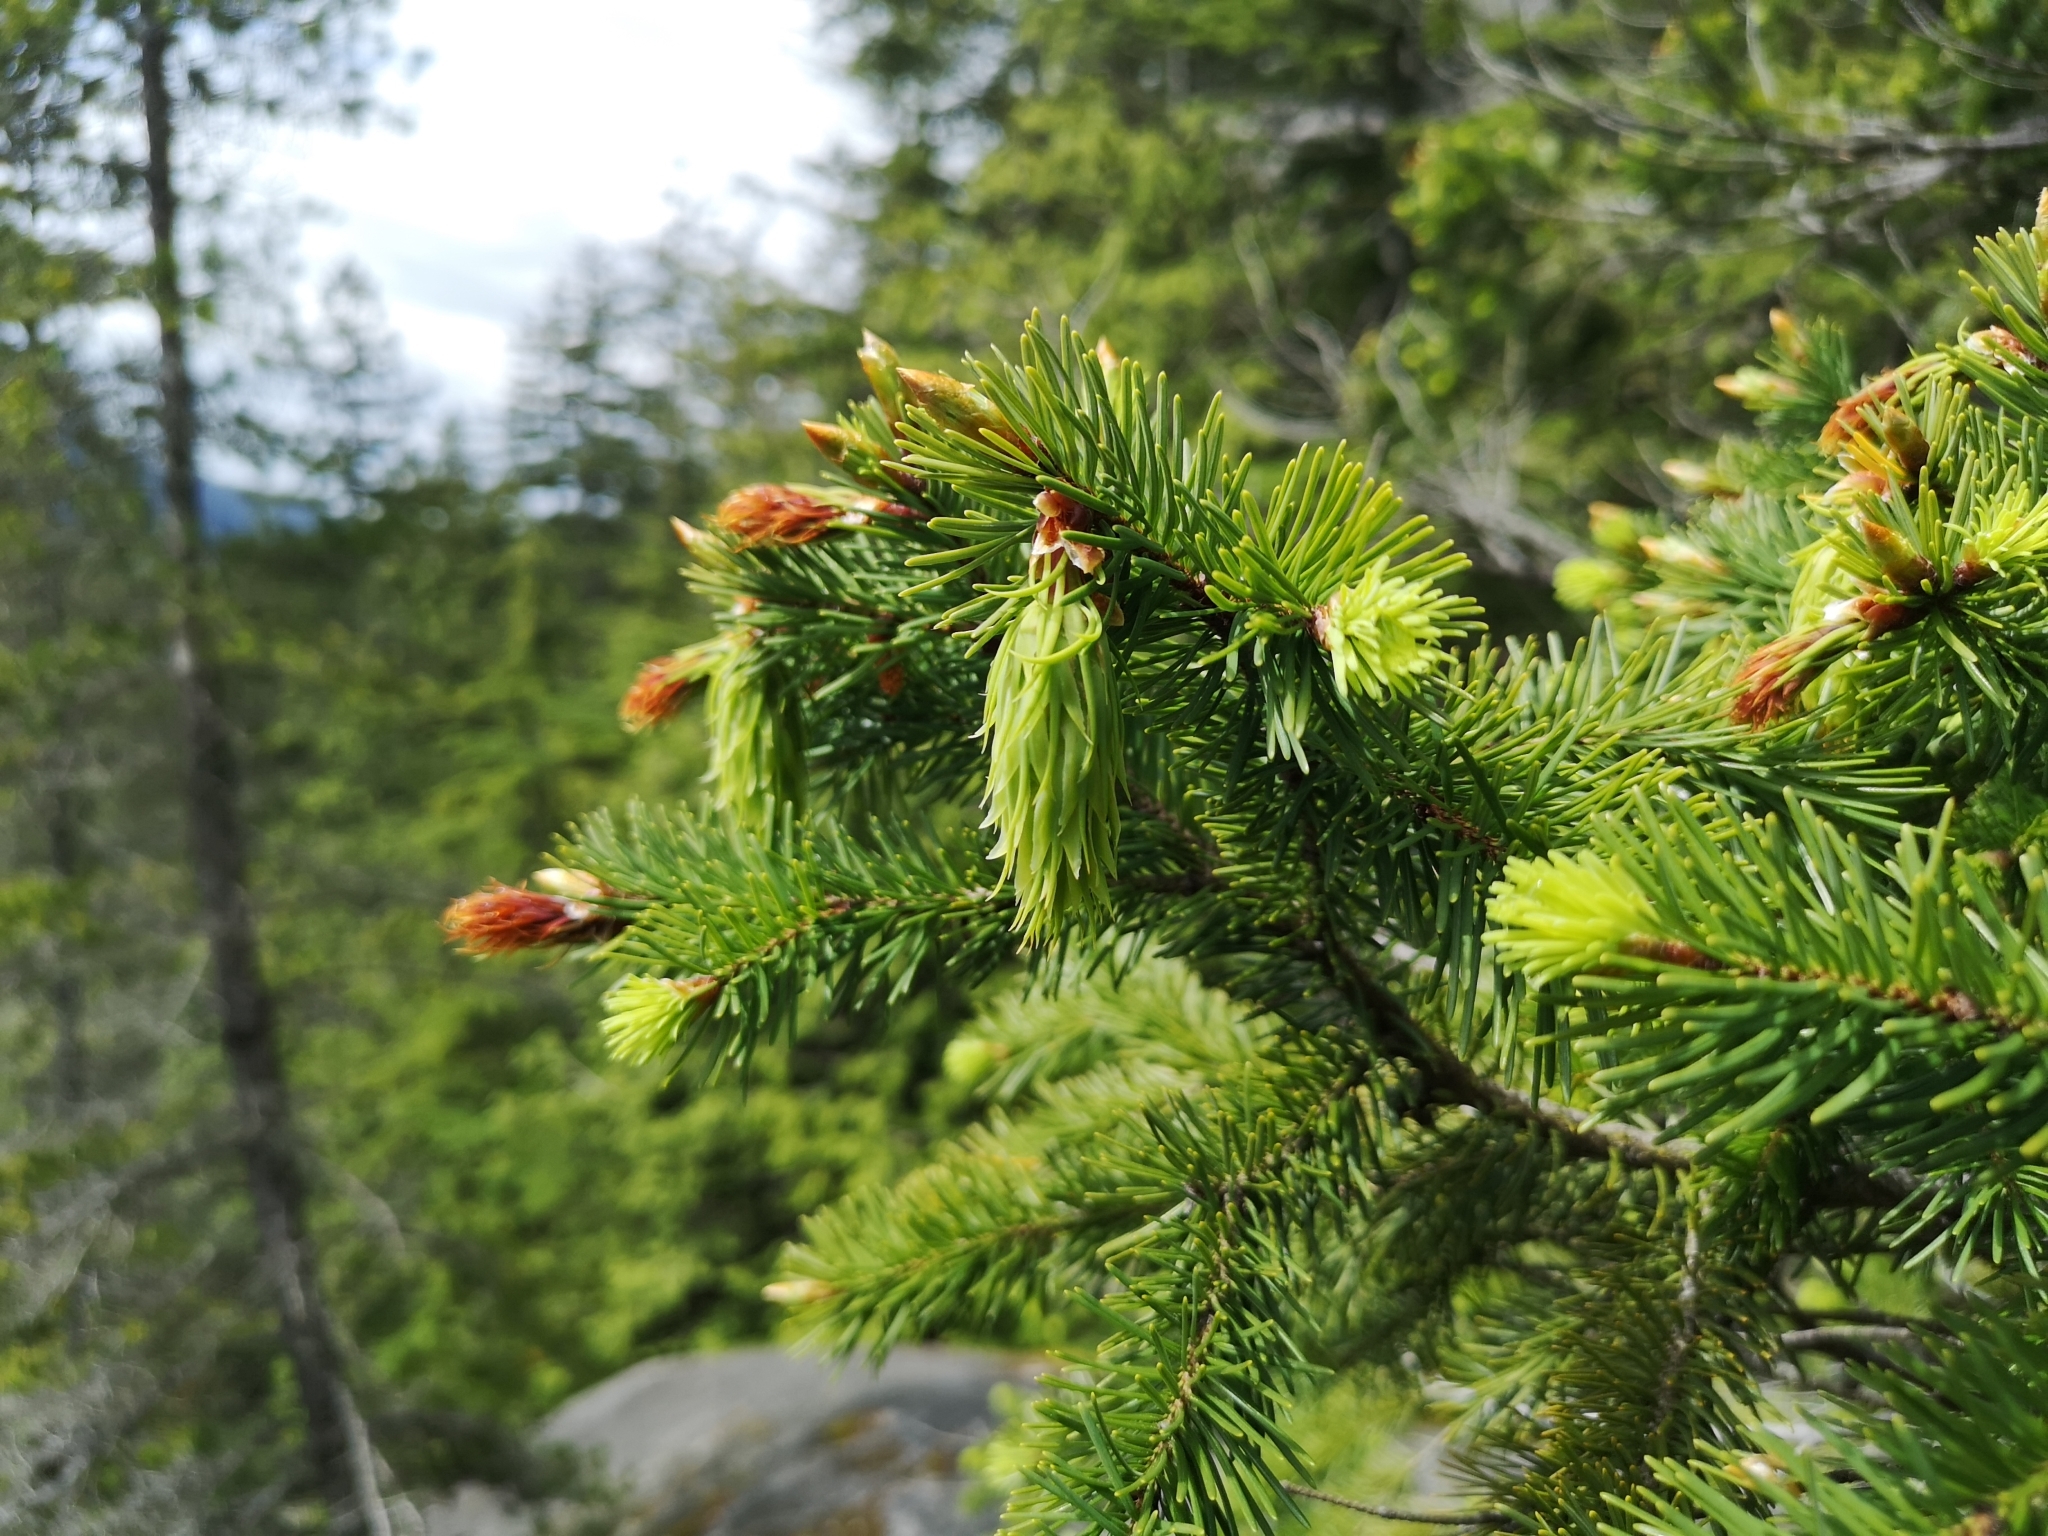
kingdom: Plantae
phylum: Tracheophyta
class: Pinopsida
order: Pinales
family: Pinaceae
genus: Pseudotsuga
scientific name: Pseudotsuga menziesii
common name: Douglas fir
